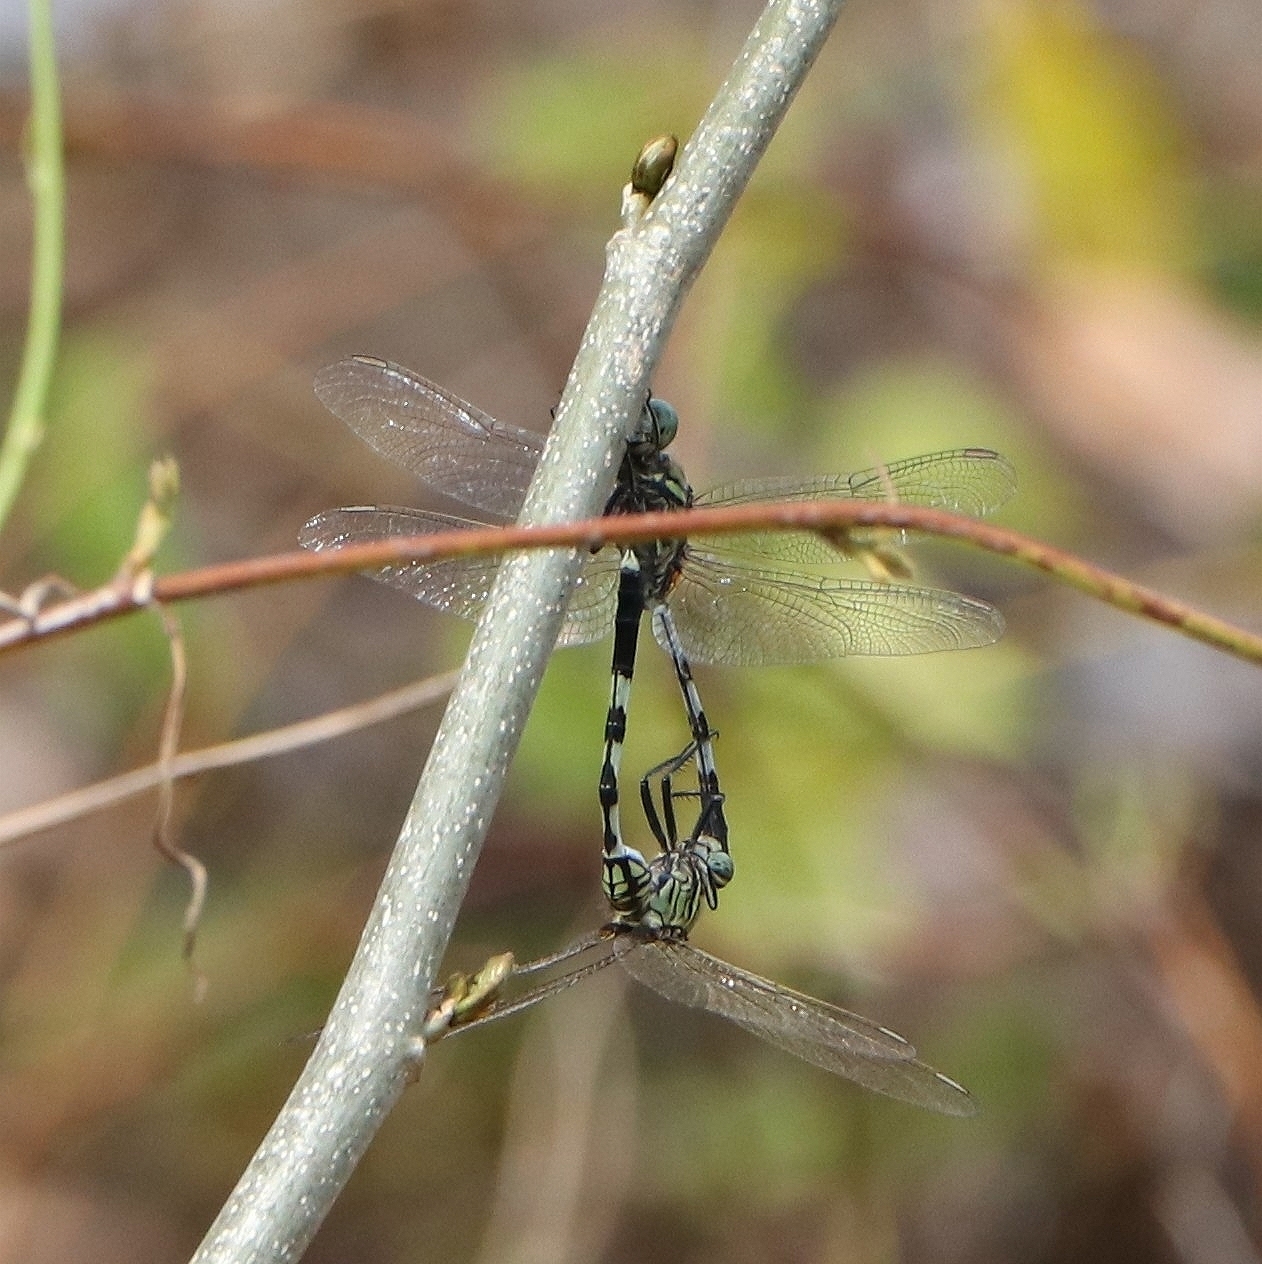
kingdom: Animalia
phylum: Arthropoda
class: Insecta
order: Odonata
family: Libellulidae
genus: Orthetrum
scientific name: Orthetrum sabina
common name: Slender skimmer
